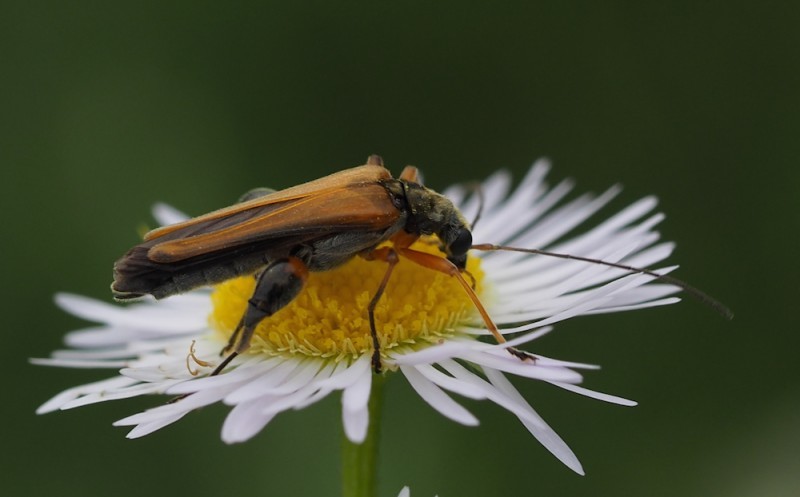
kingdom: Animalia
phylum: Arthropoda
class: Insecta
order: Coleoptera
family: Oedemeridae
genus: Oedemera
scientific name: Oedemera podagrariae
